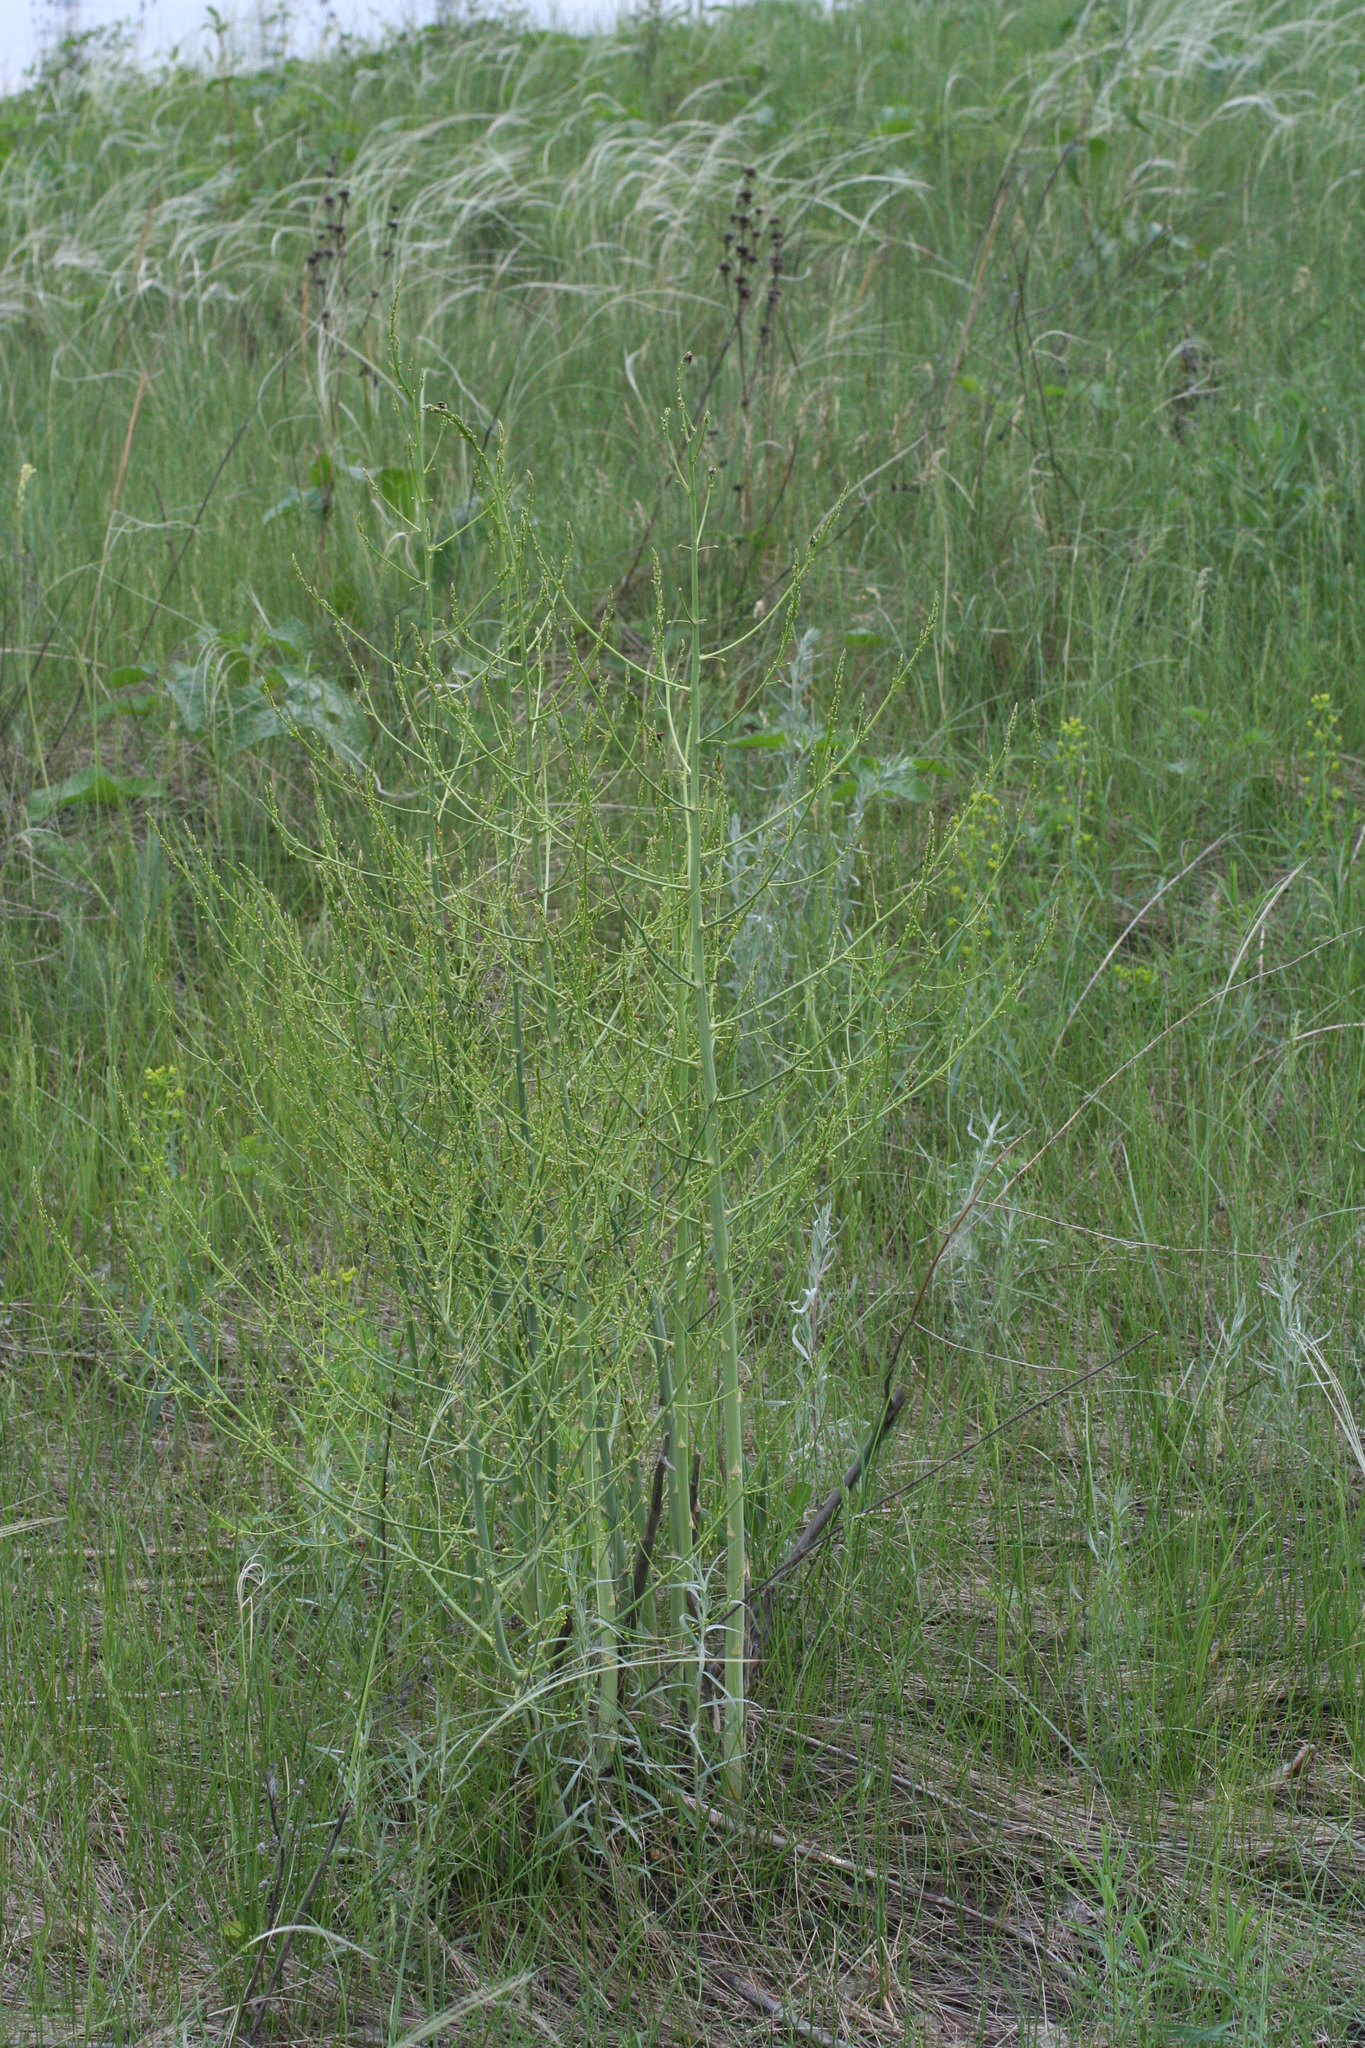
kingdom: Plantae
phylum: Tracheophyta
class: Liliopsida
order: Asparagales
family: Asparagaceae
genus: Asparagus
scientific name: Asparagus officinalis
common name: Garden asparagus
